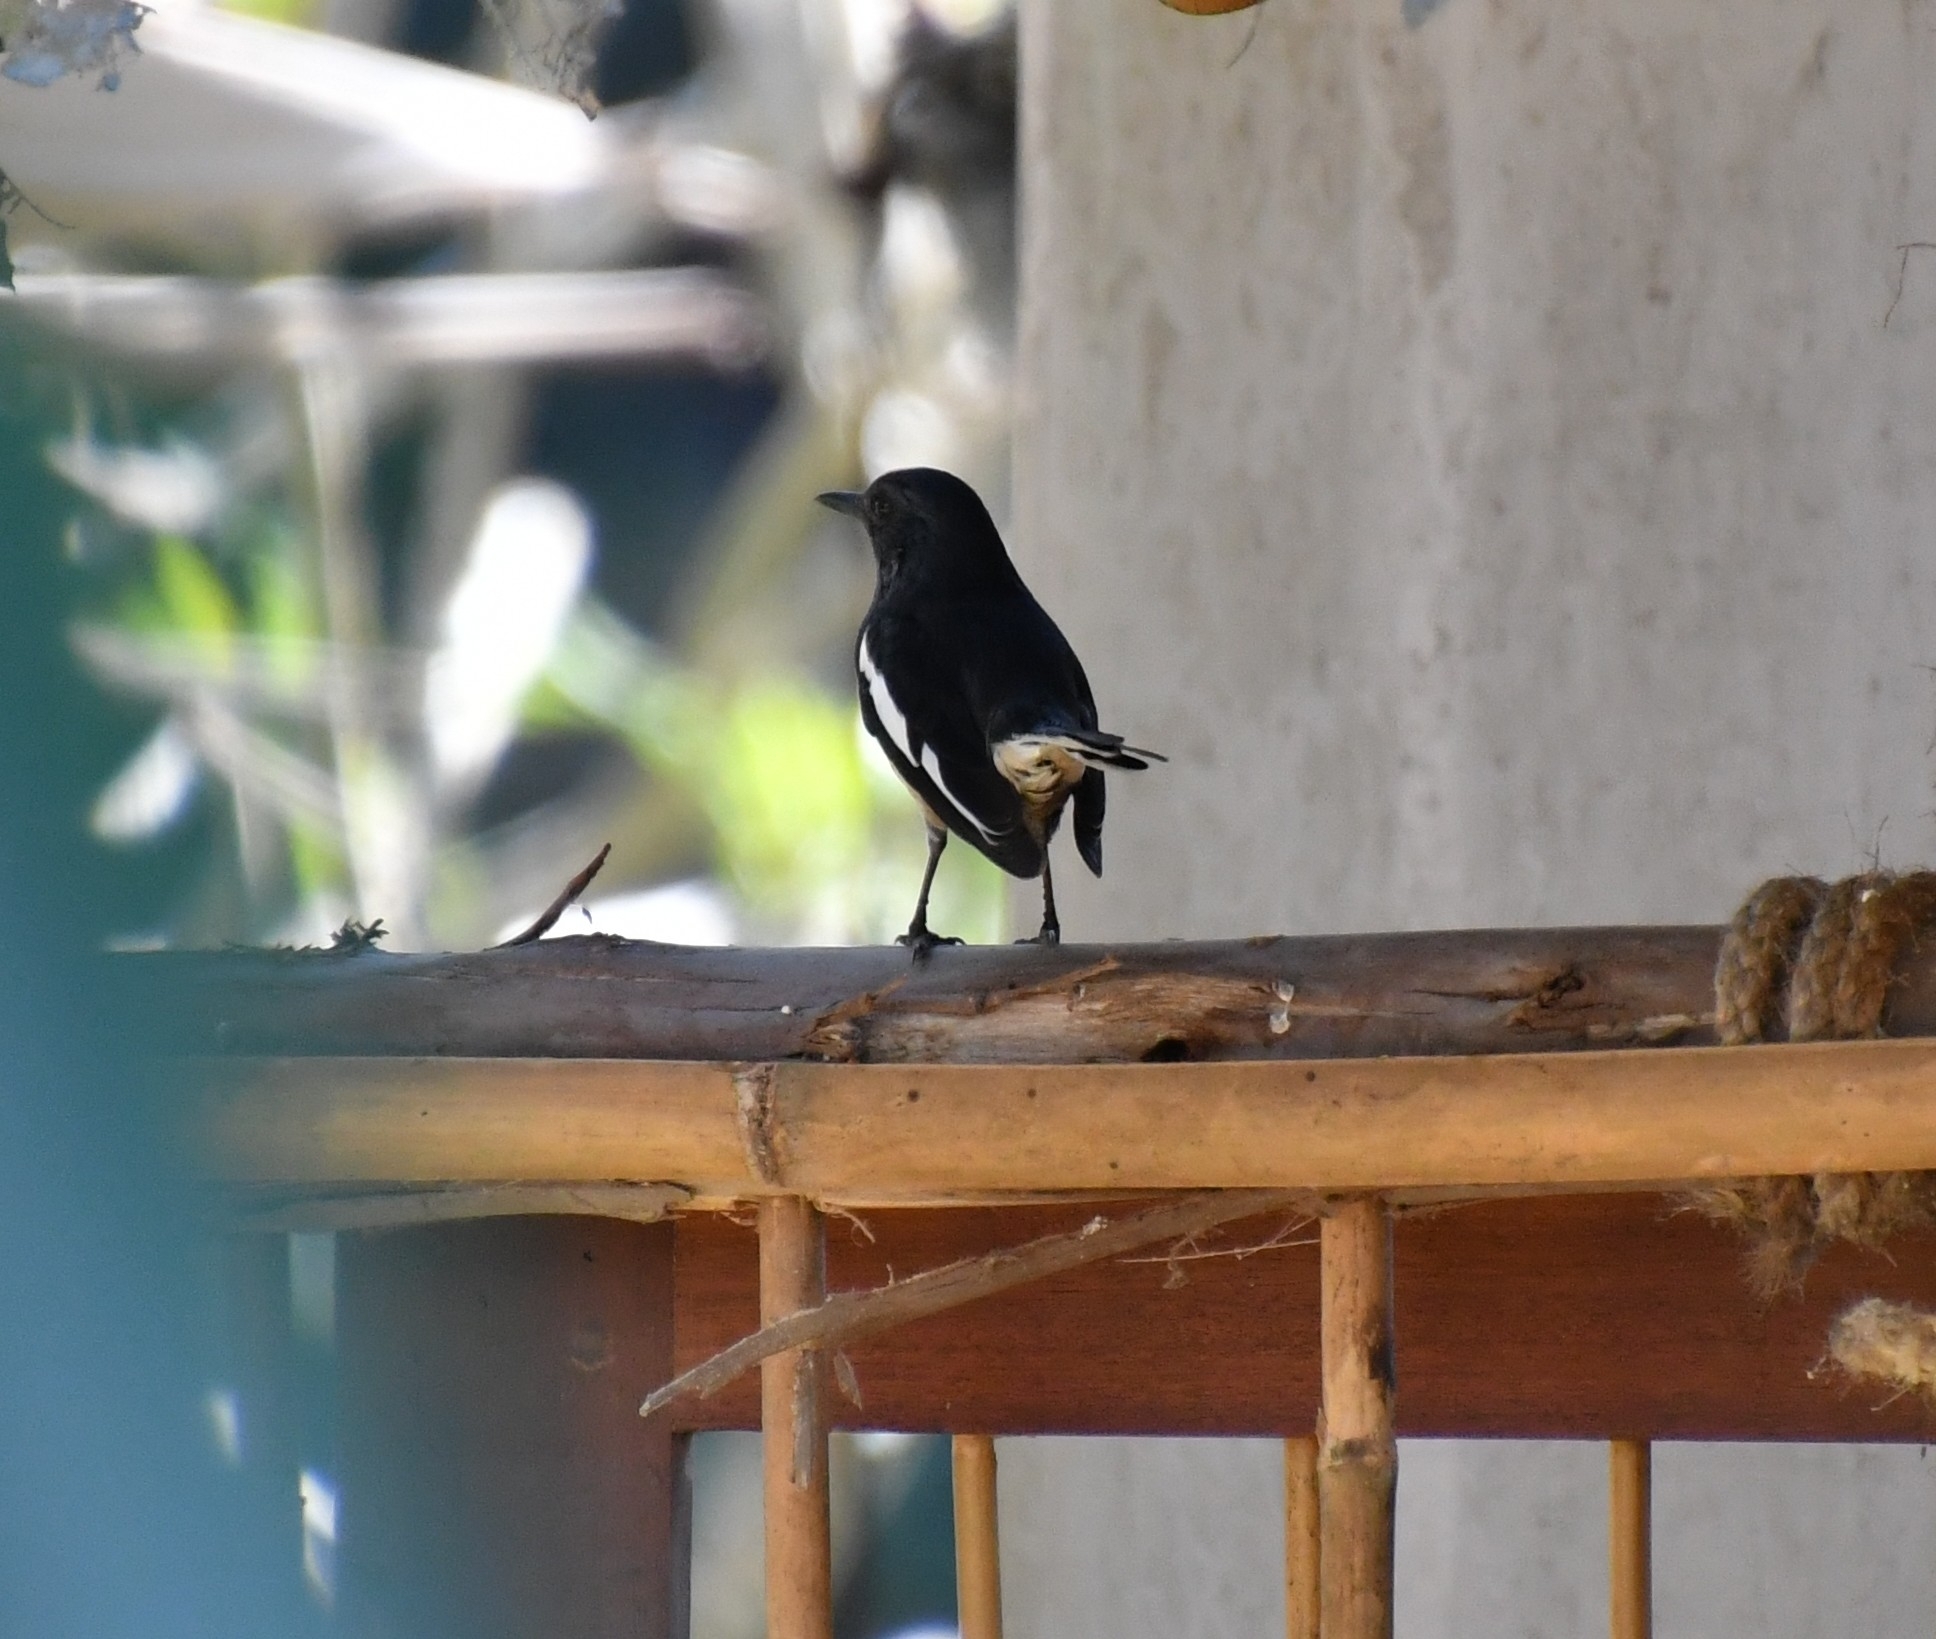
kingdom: Animalia
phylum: Chordata
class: Aves
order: Passeriformes
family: Muscicapidae
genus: Copsychus
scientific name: Copsychus saularis
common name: Oriental magpie-robin
